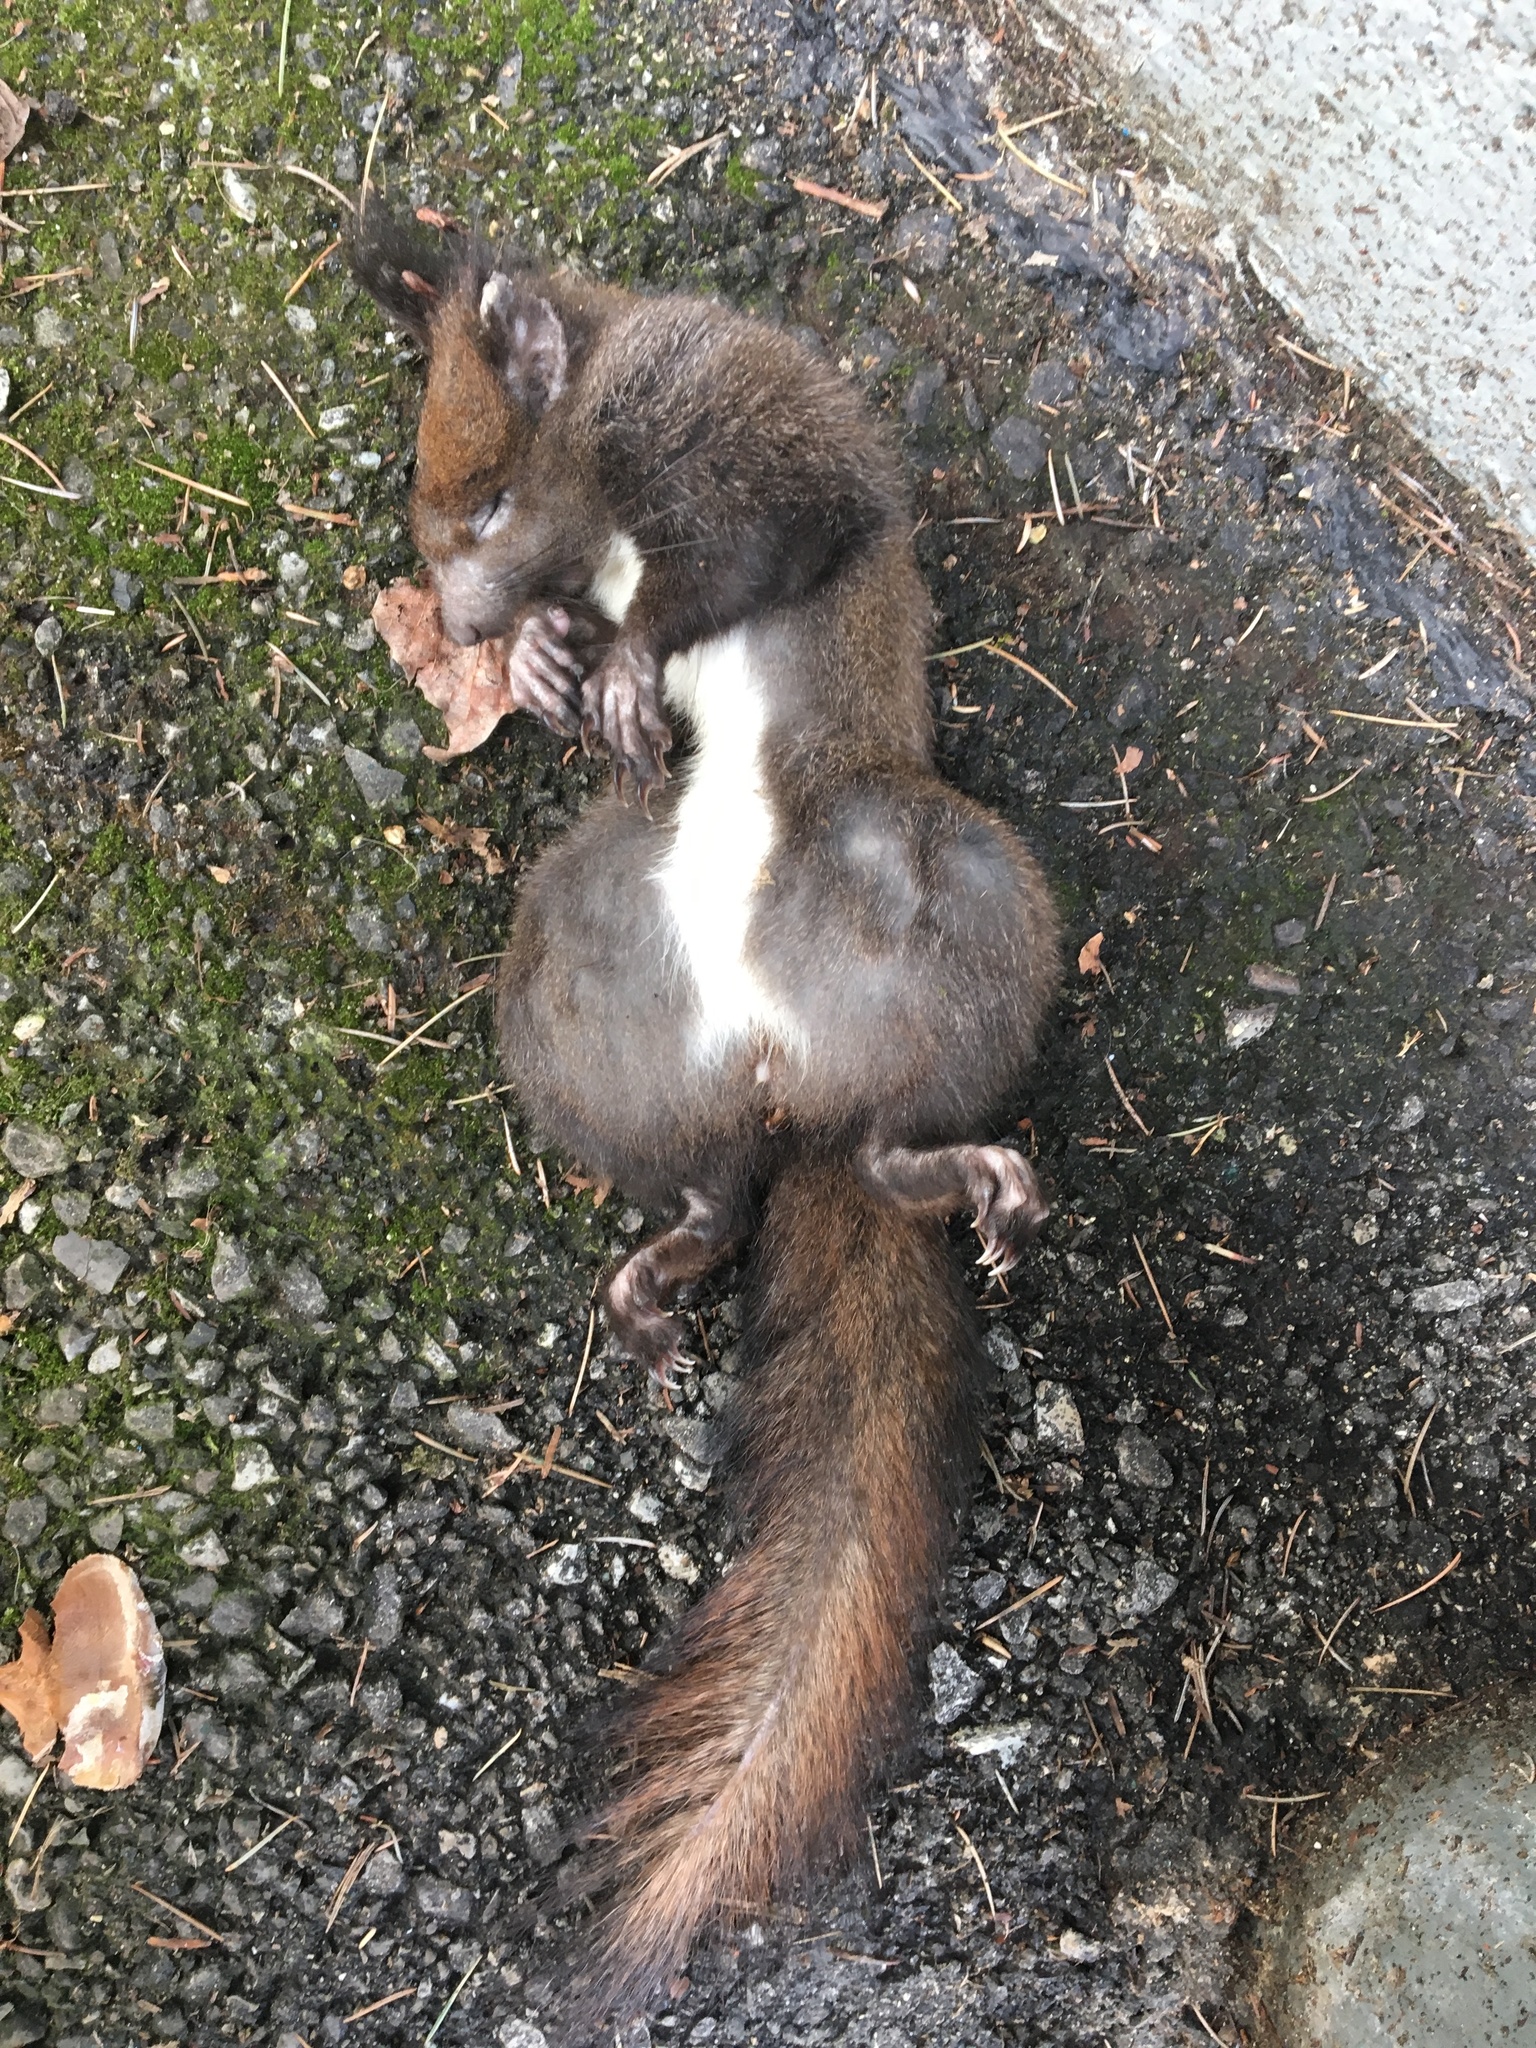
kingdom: Animalia
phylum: Chordata
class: Mammalia
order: Rodentia
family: Sciuridae
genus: Sciurus
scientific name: Sciurus vulgaris
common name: Eurasian red squirrel
